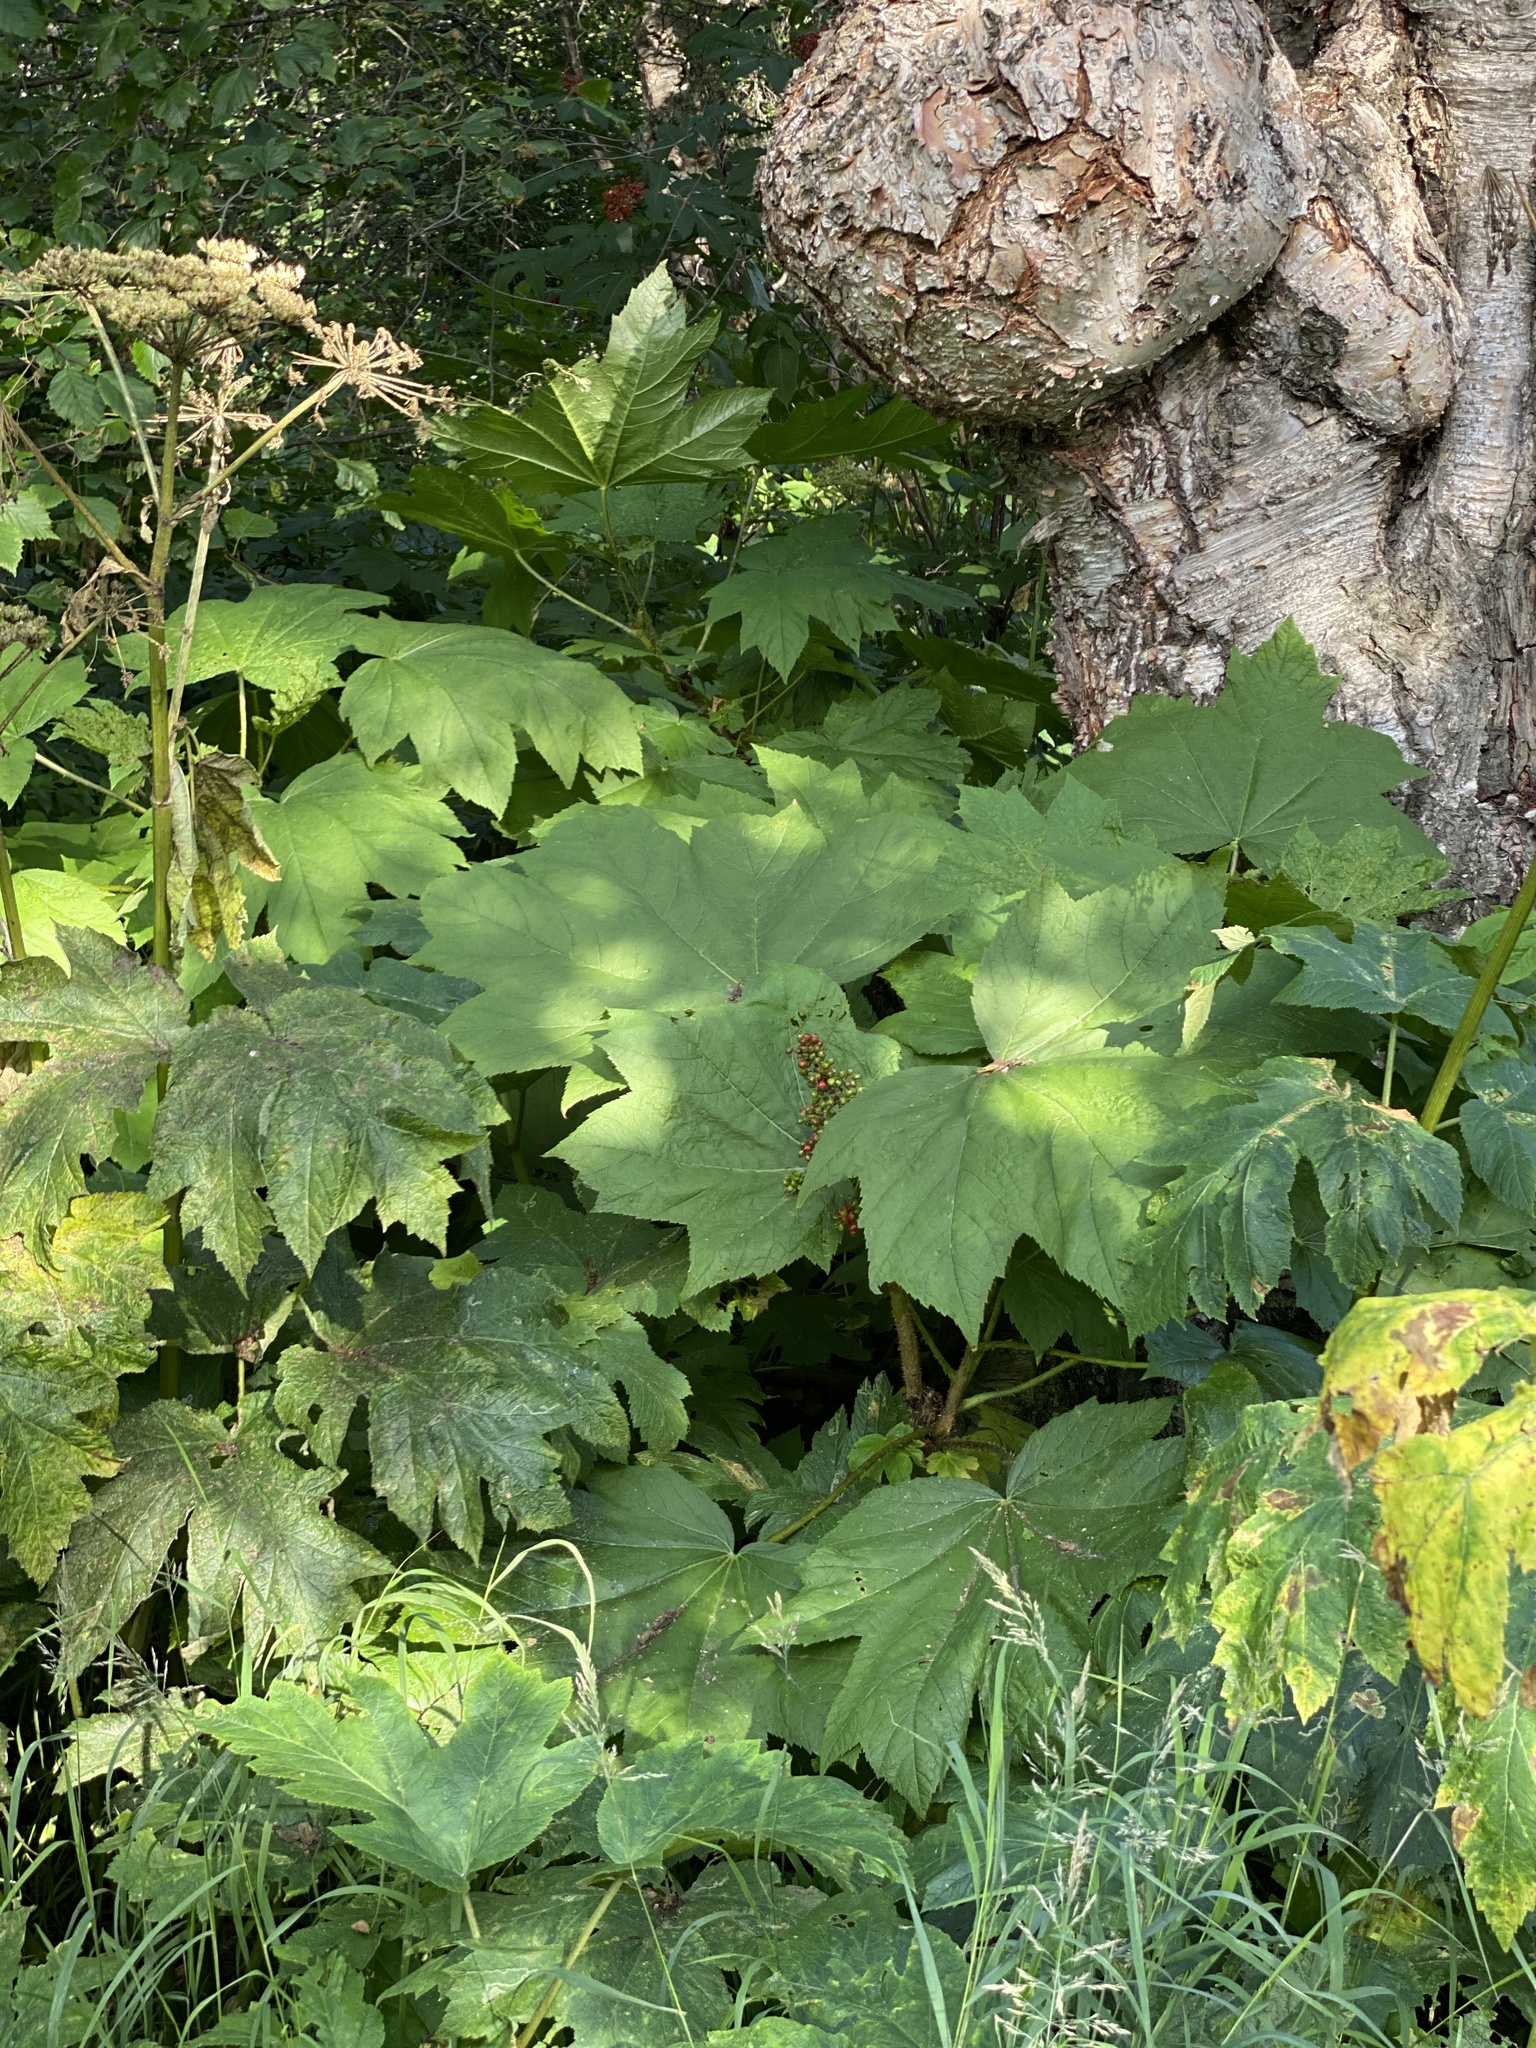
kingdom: Plantae
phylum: Tracheophyta
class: Magnoliopsida
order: Apiales
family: Araliaceae
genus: Oplopanax
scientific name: Oplopanax horridus
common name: Devil's walking-stick
